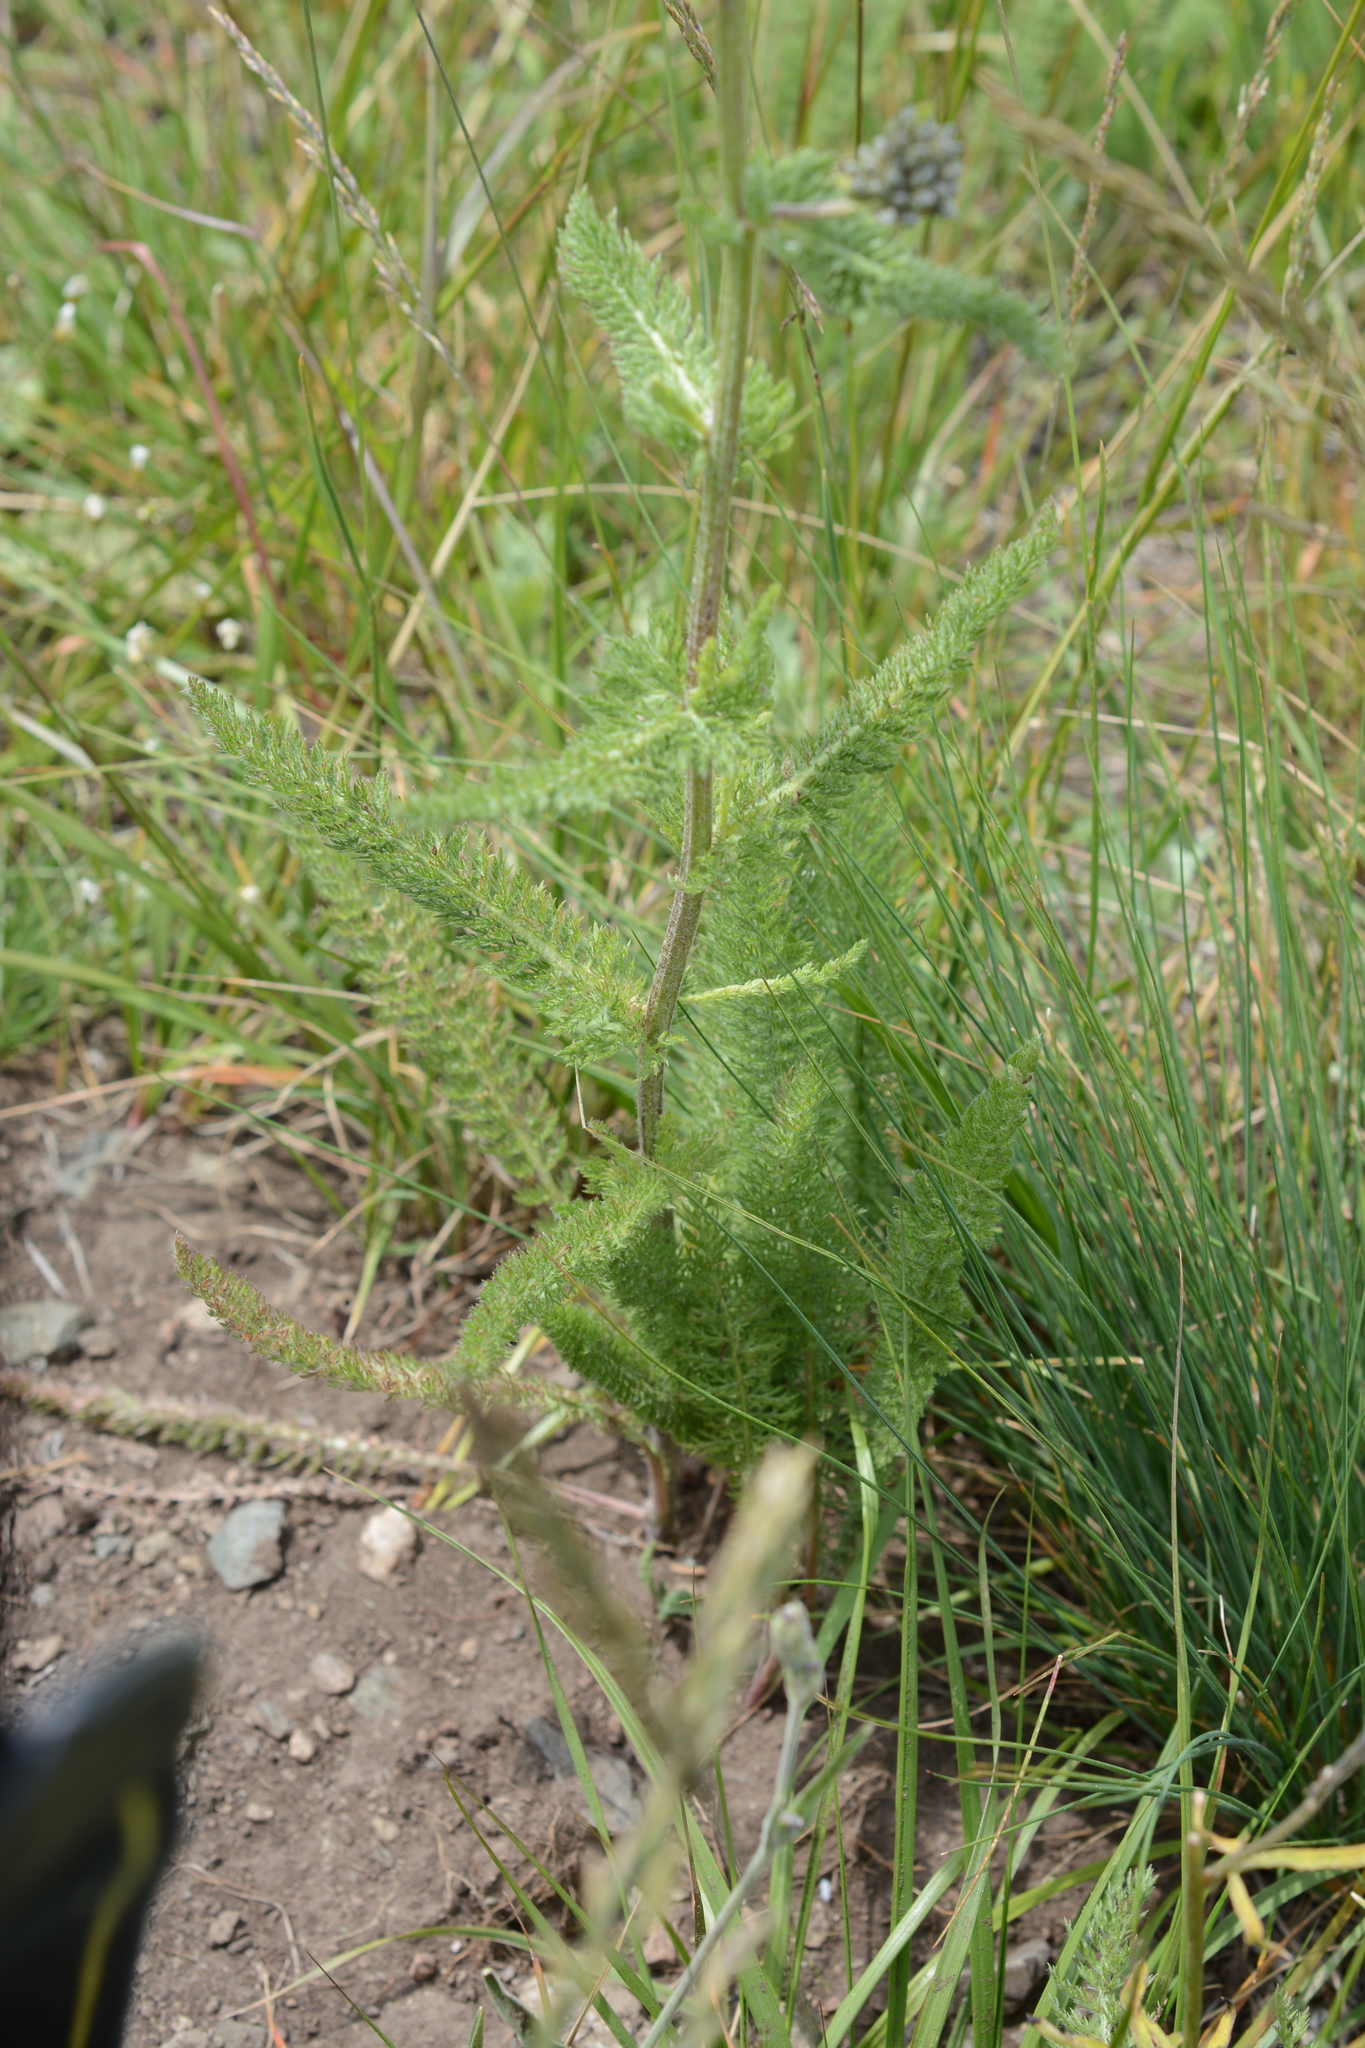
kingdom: Plantae
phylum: Tracheophyta
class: Magnoliopsida
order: Asterales
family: Asteraceae
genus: Achillea
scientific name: Achillea millefolium
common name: Yarrow
